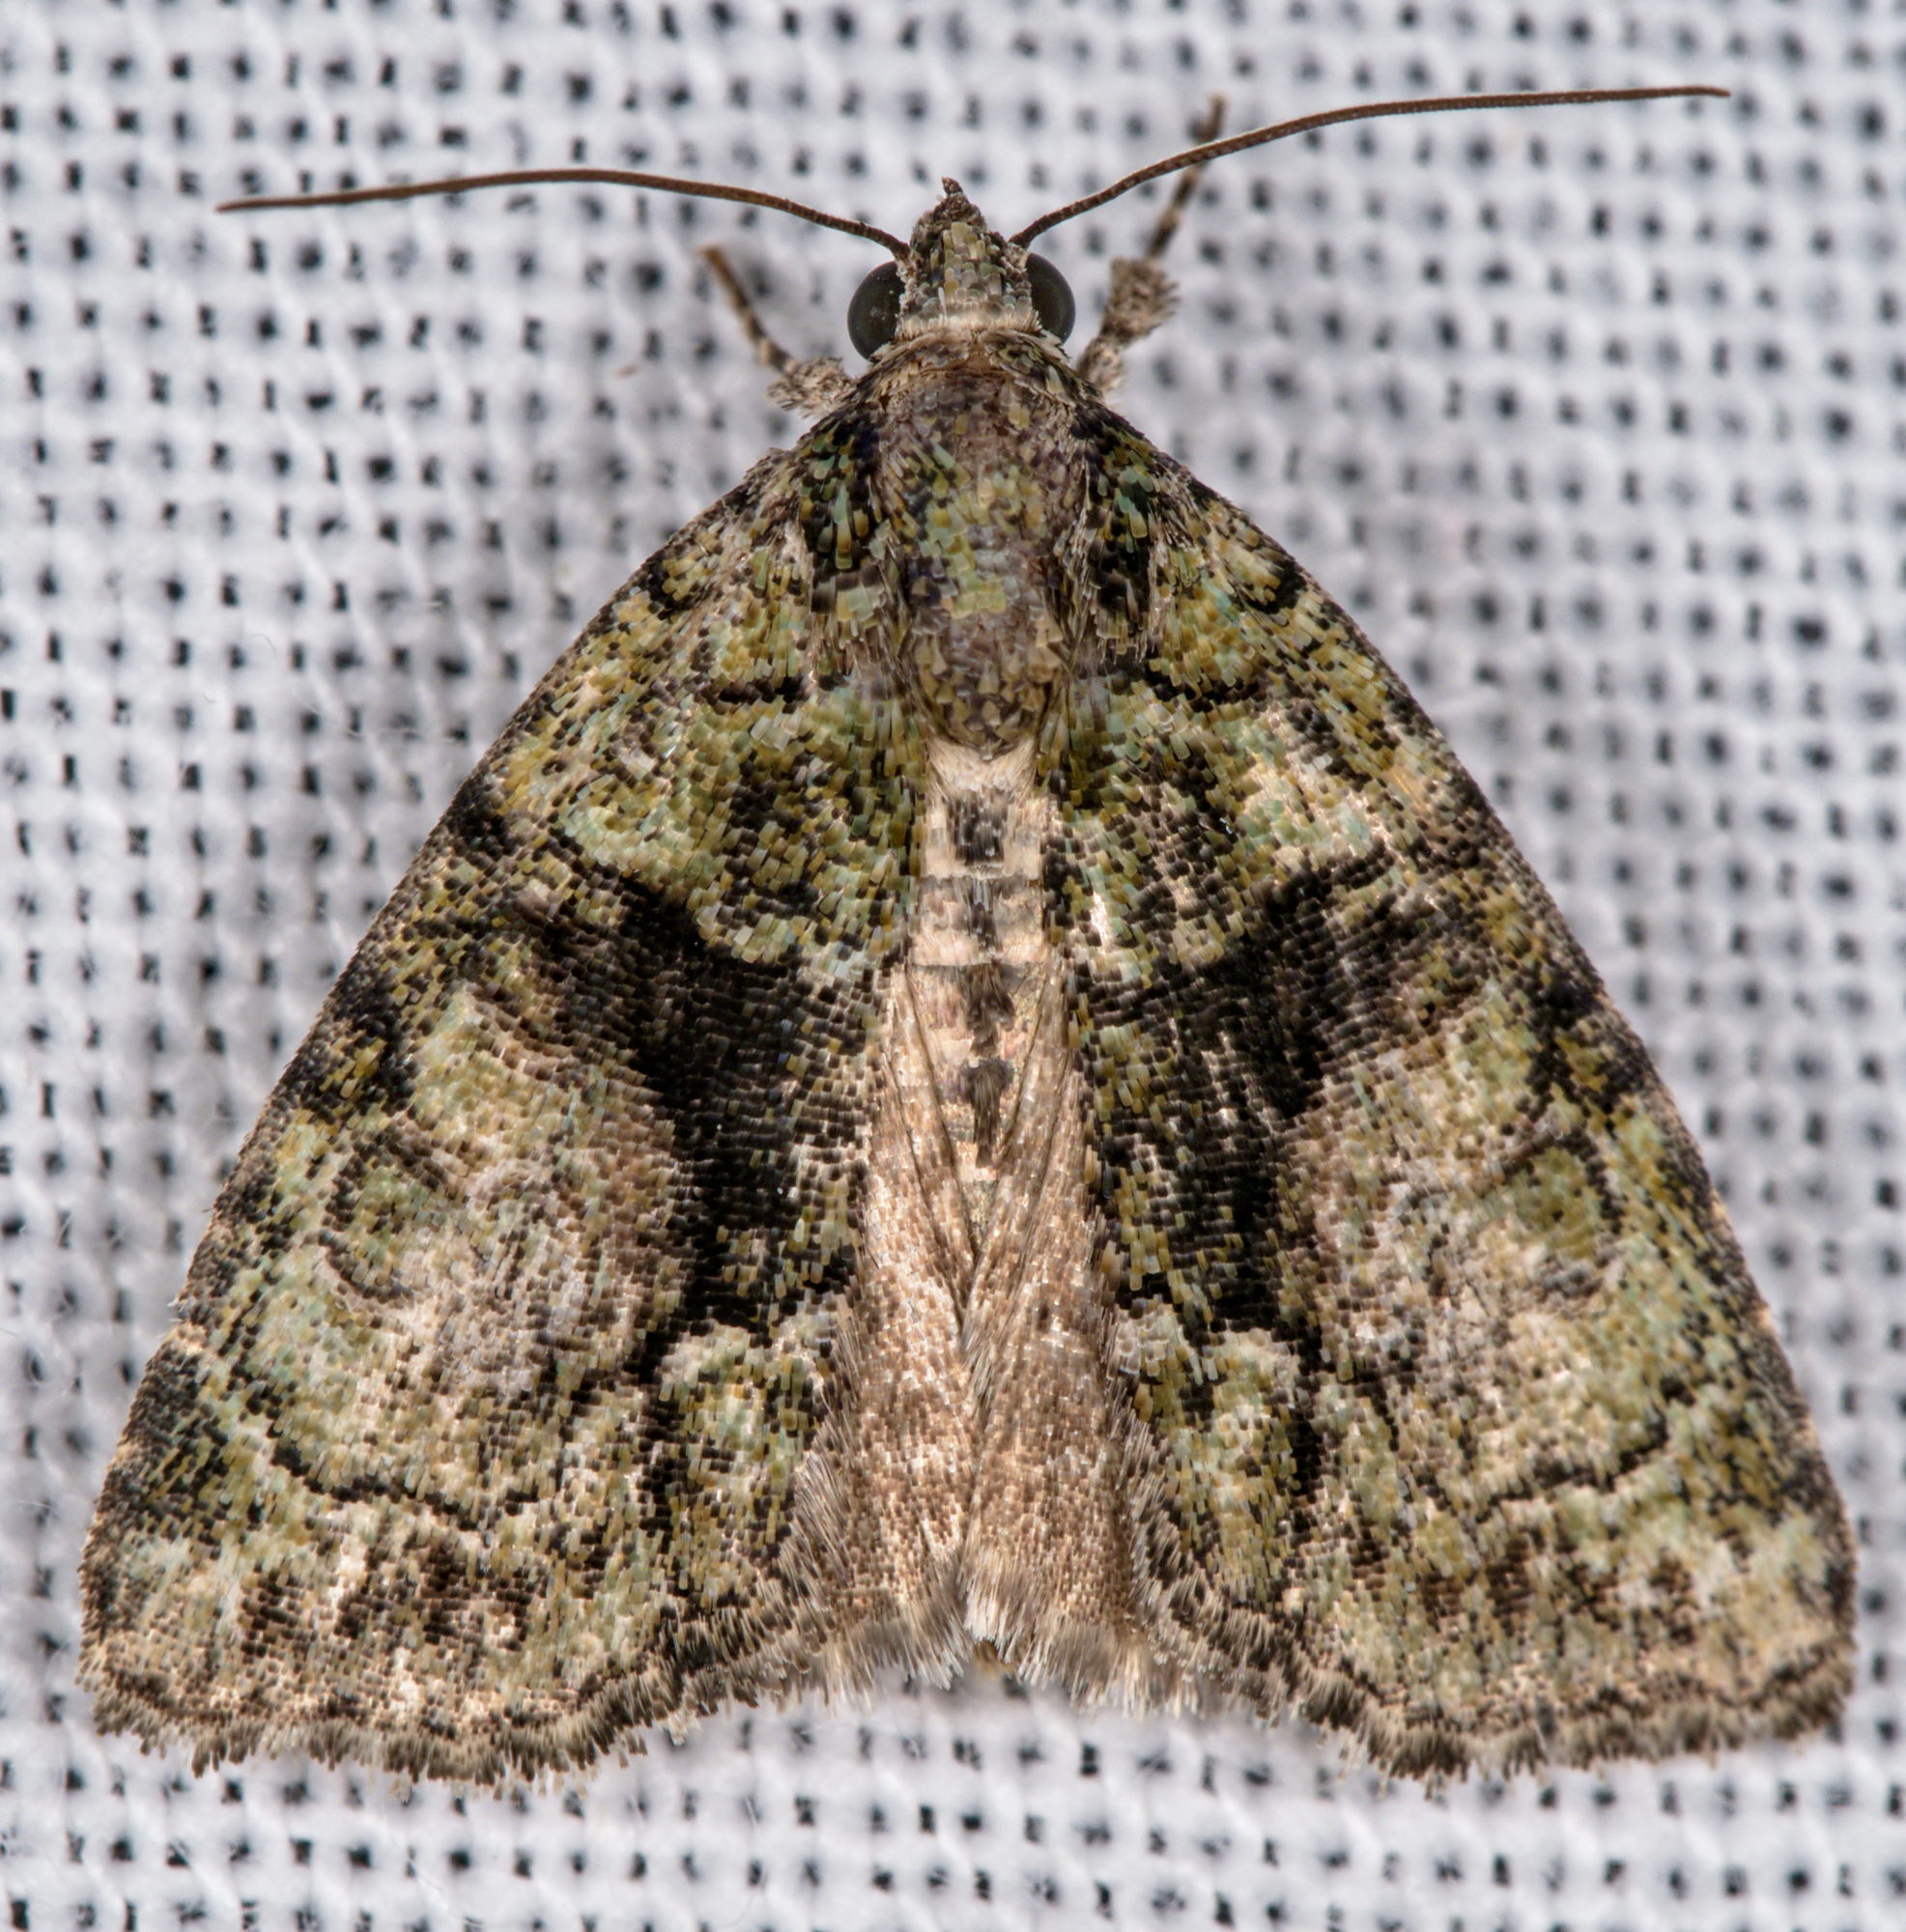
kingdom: Animalia
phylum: Arthropoda
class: Insecta
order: Lepidoptera
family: Noctuidae
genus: Cryphia
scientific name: Cryphia algae
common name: Tree-lichen beauty
